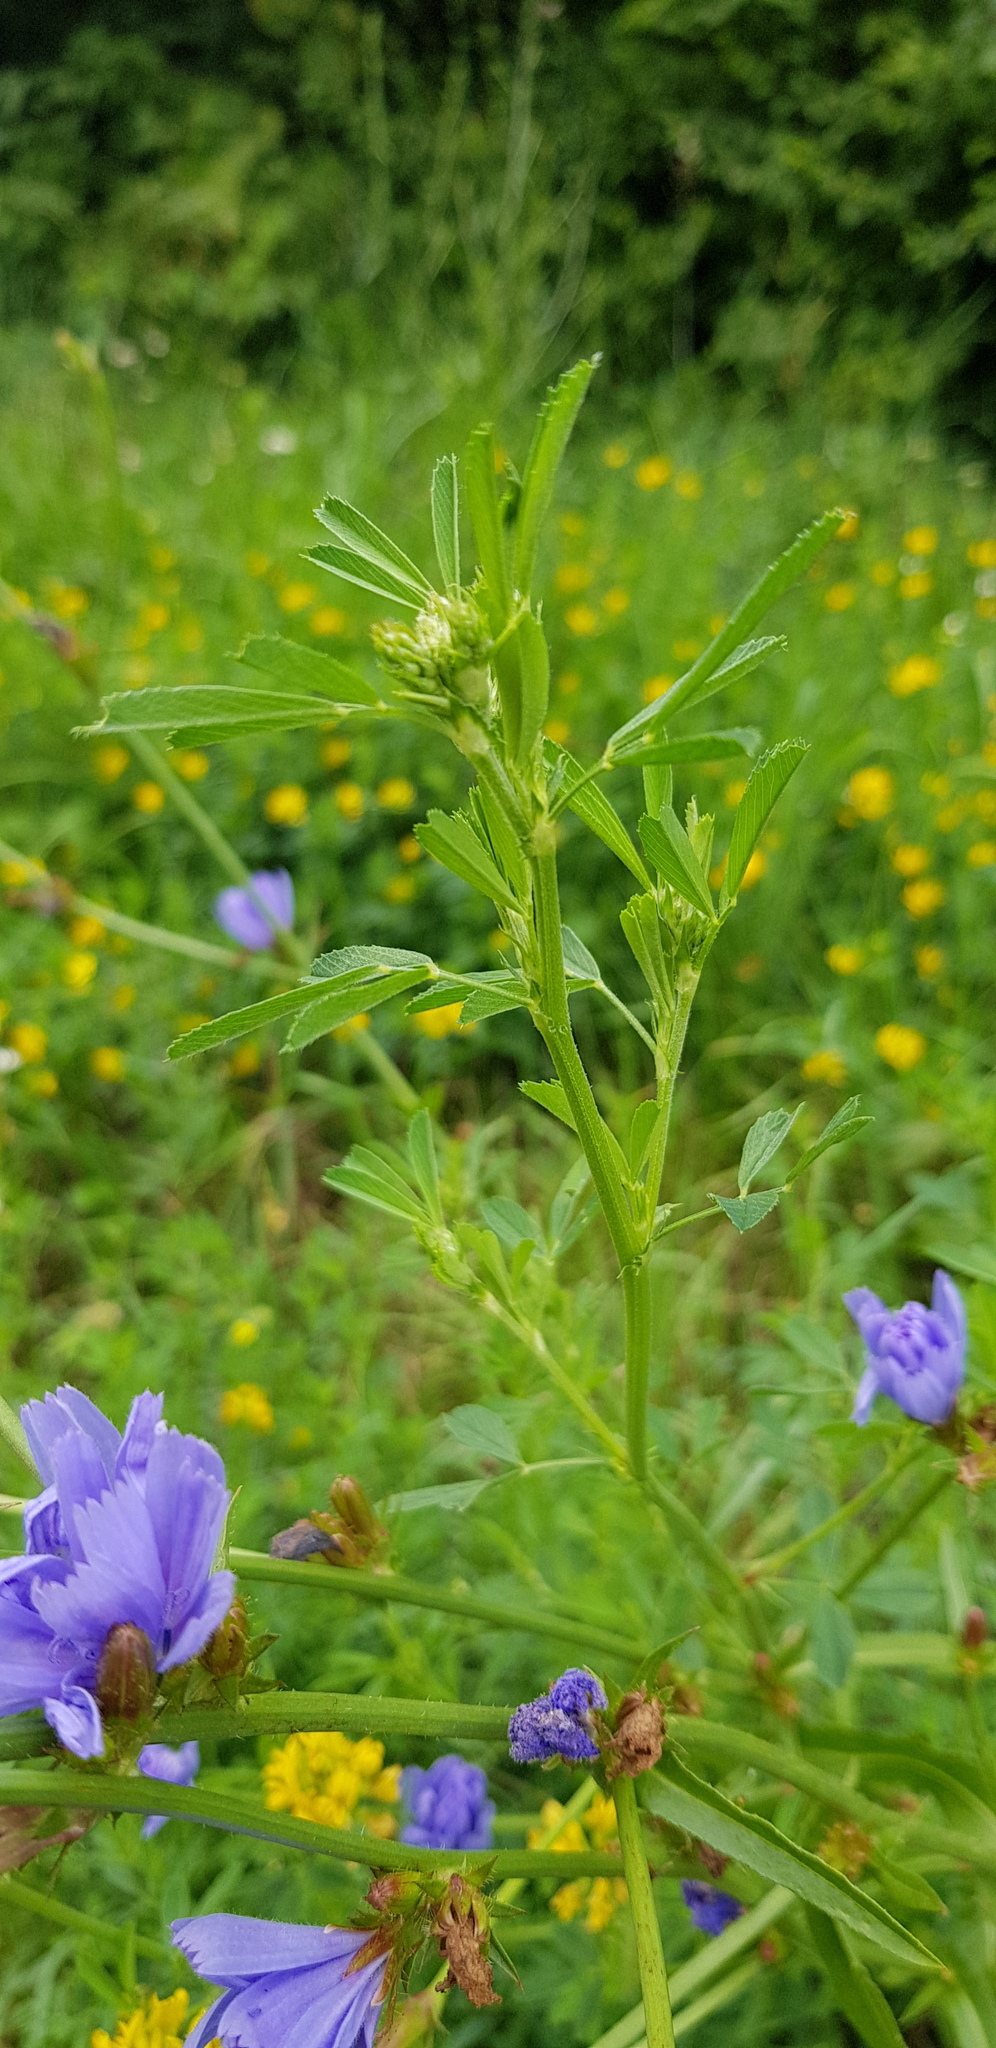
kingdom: Plantae
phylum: Tracheophyta
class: Magnoliopsida
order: Asterales
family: Asteraceae
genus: Cichorium
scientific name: Cichorium intybus
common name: Chicory
